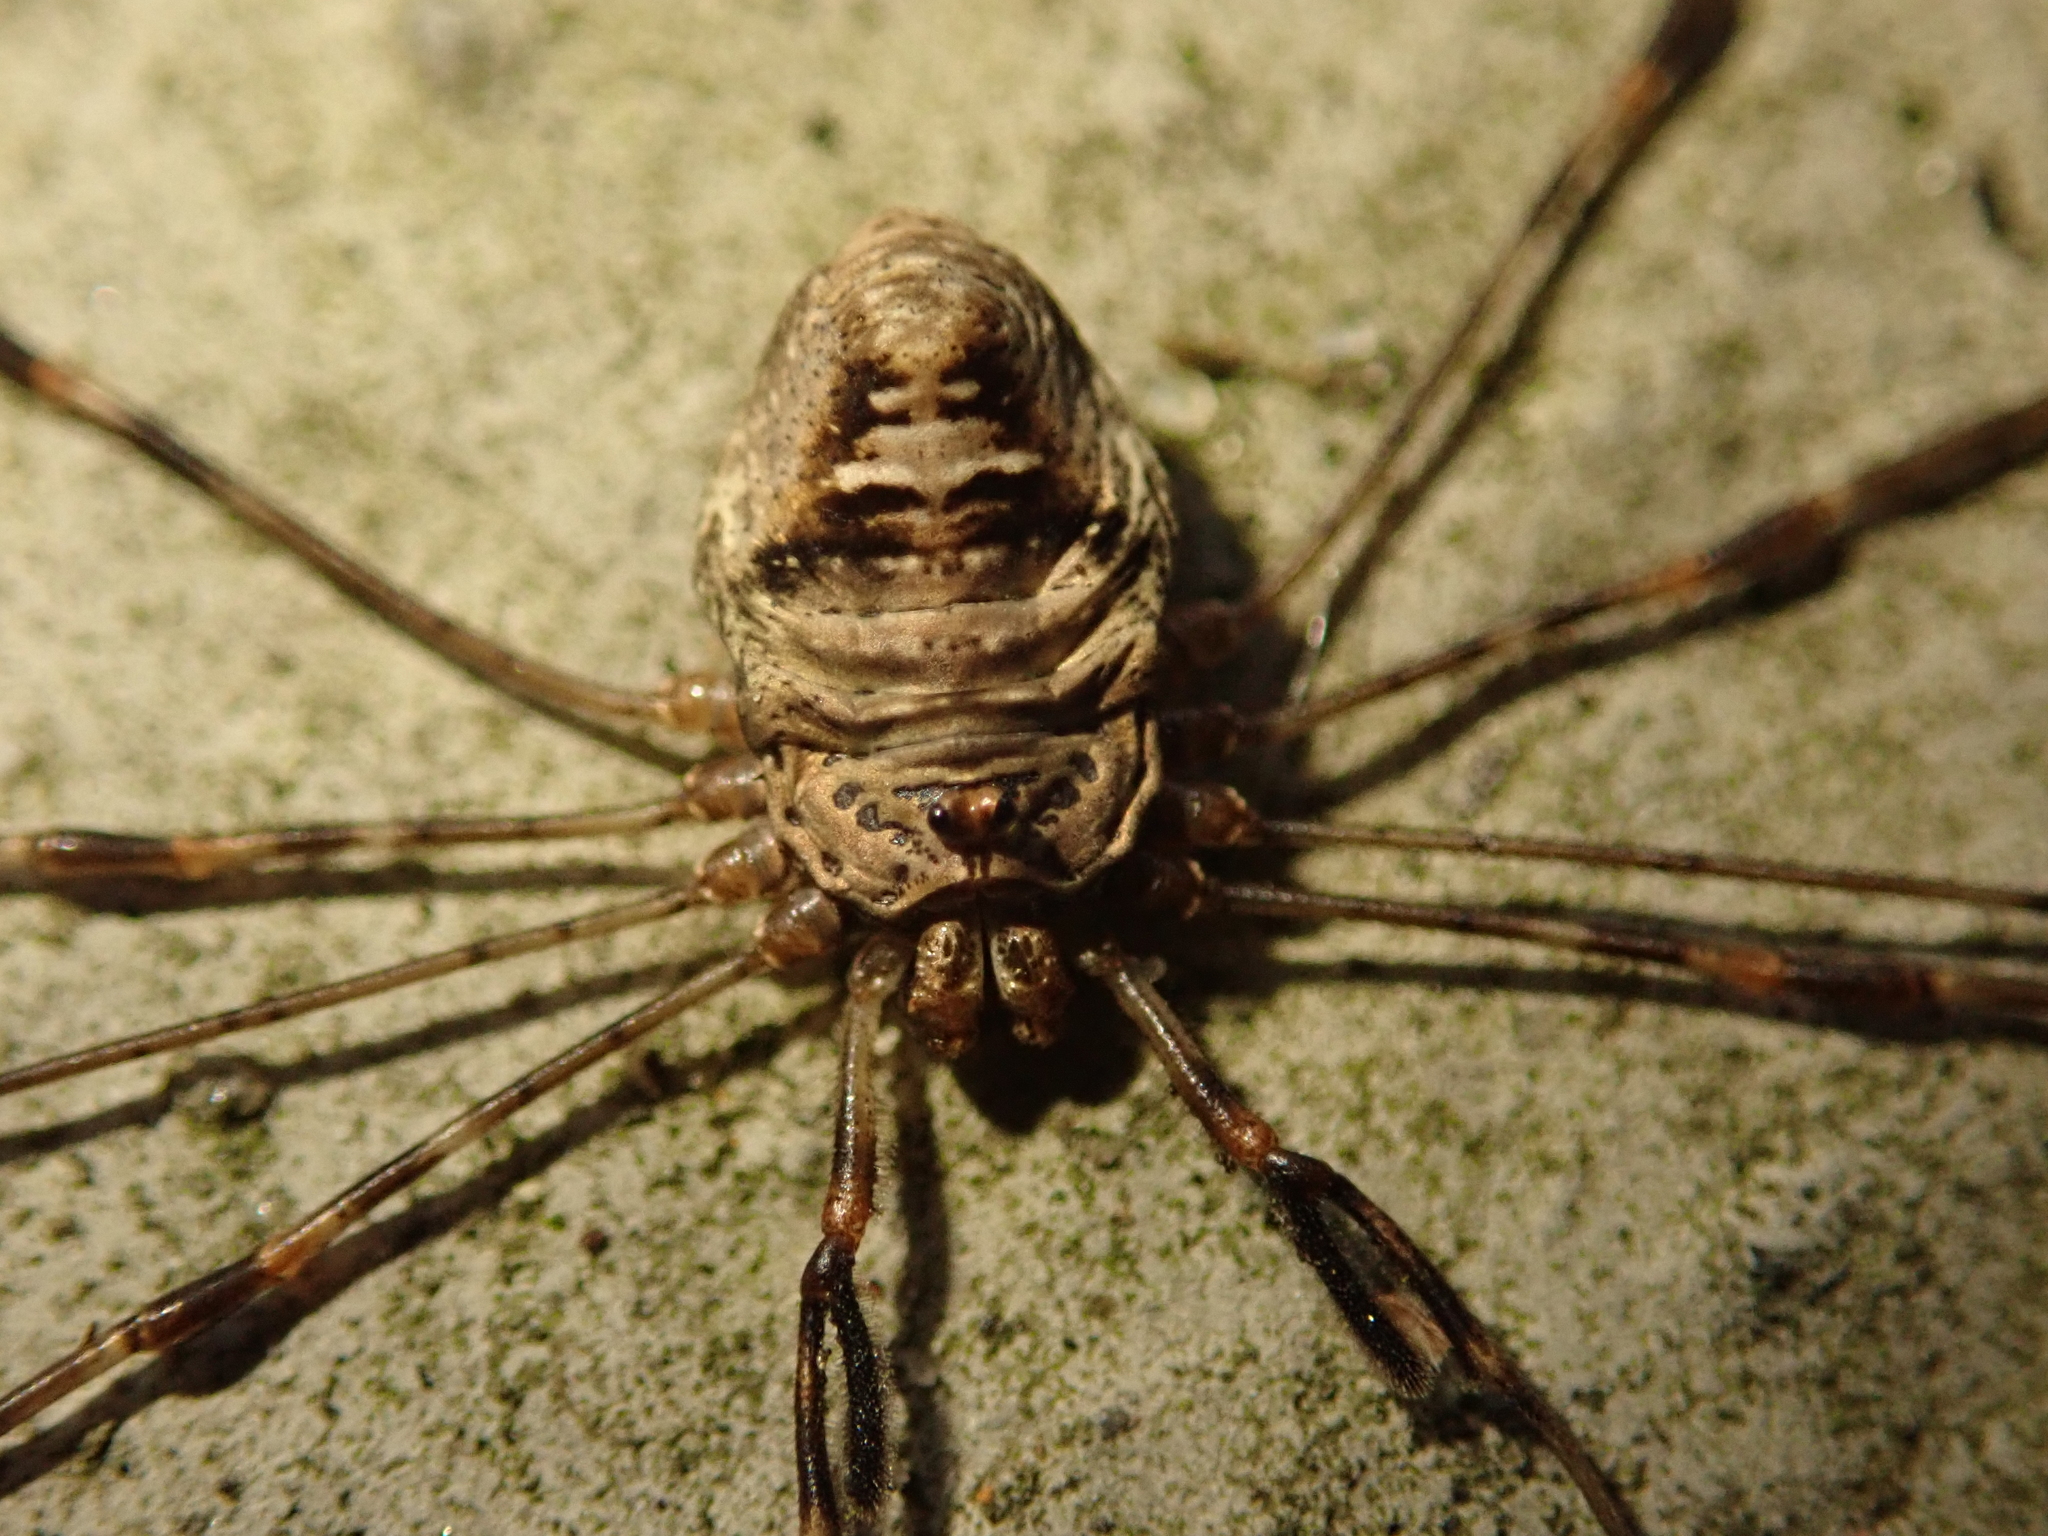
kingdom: Animalia
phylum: Arthropoda
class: Arachnida
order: Opiliones
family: Phalangiidae
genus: Dicranopalpus
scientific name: Dicranopalpus ramosus
